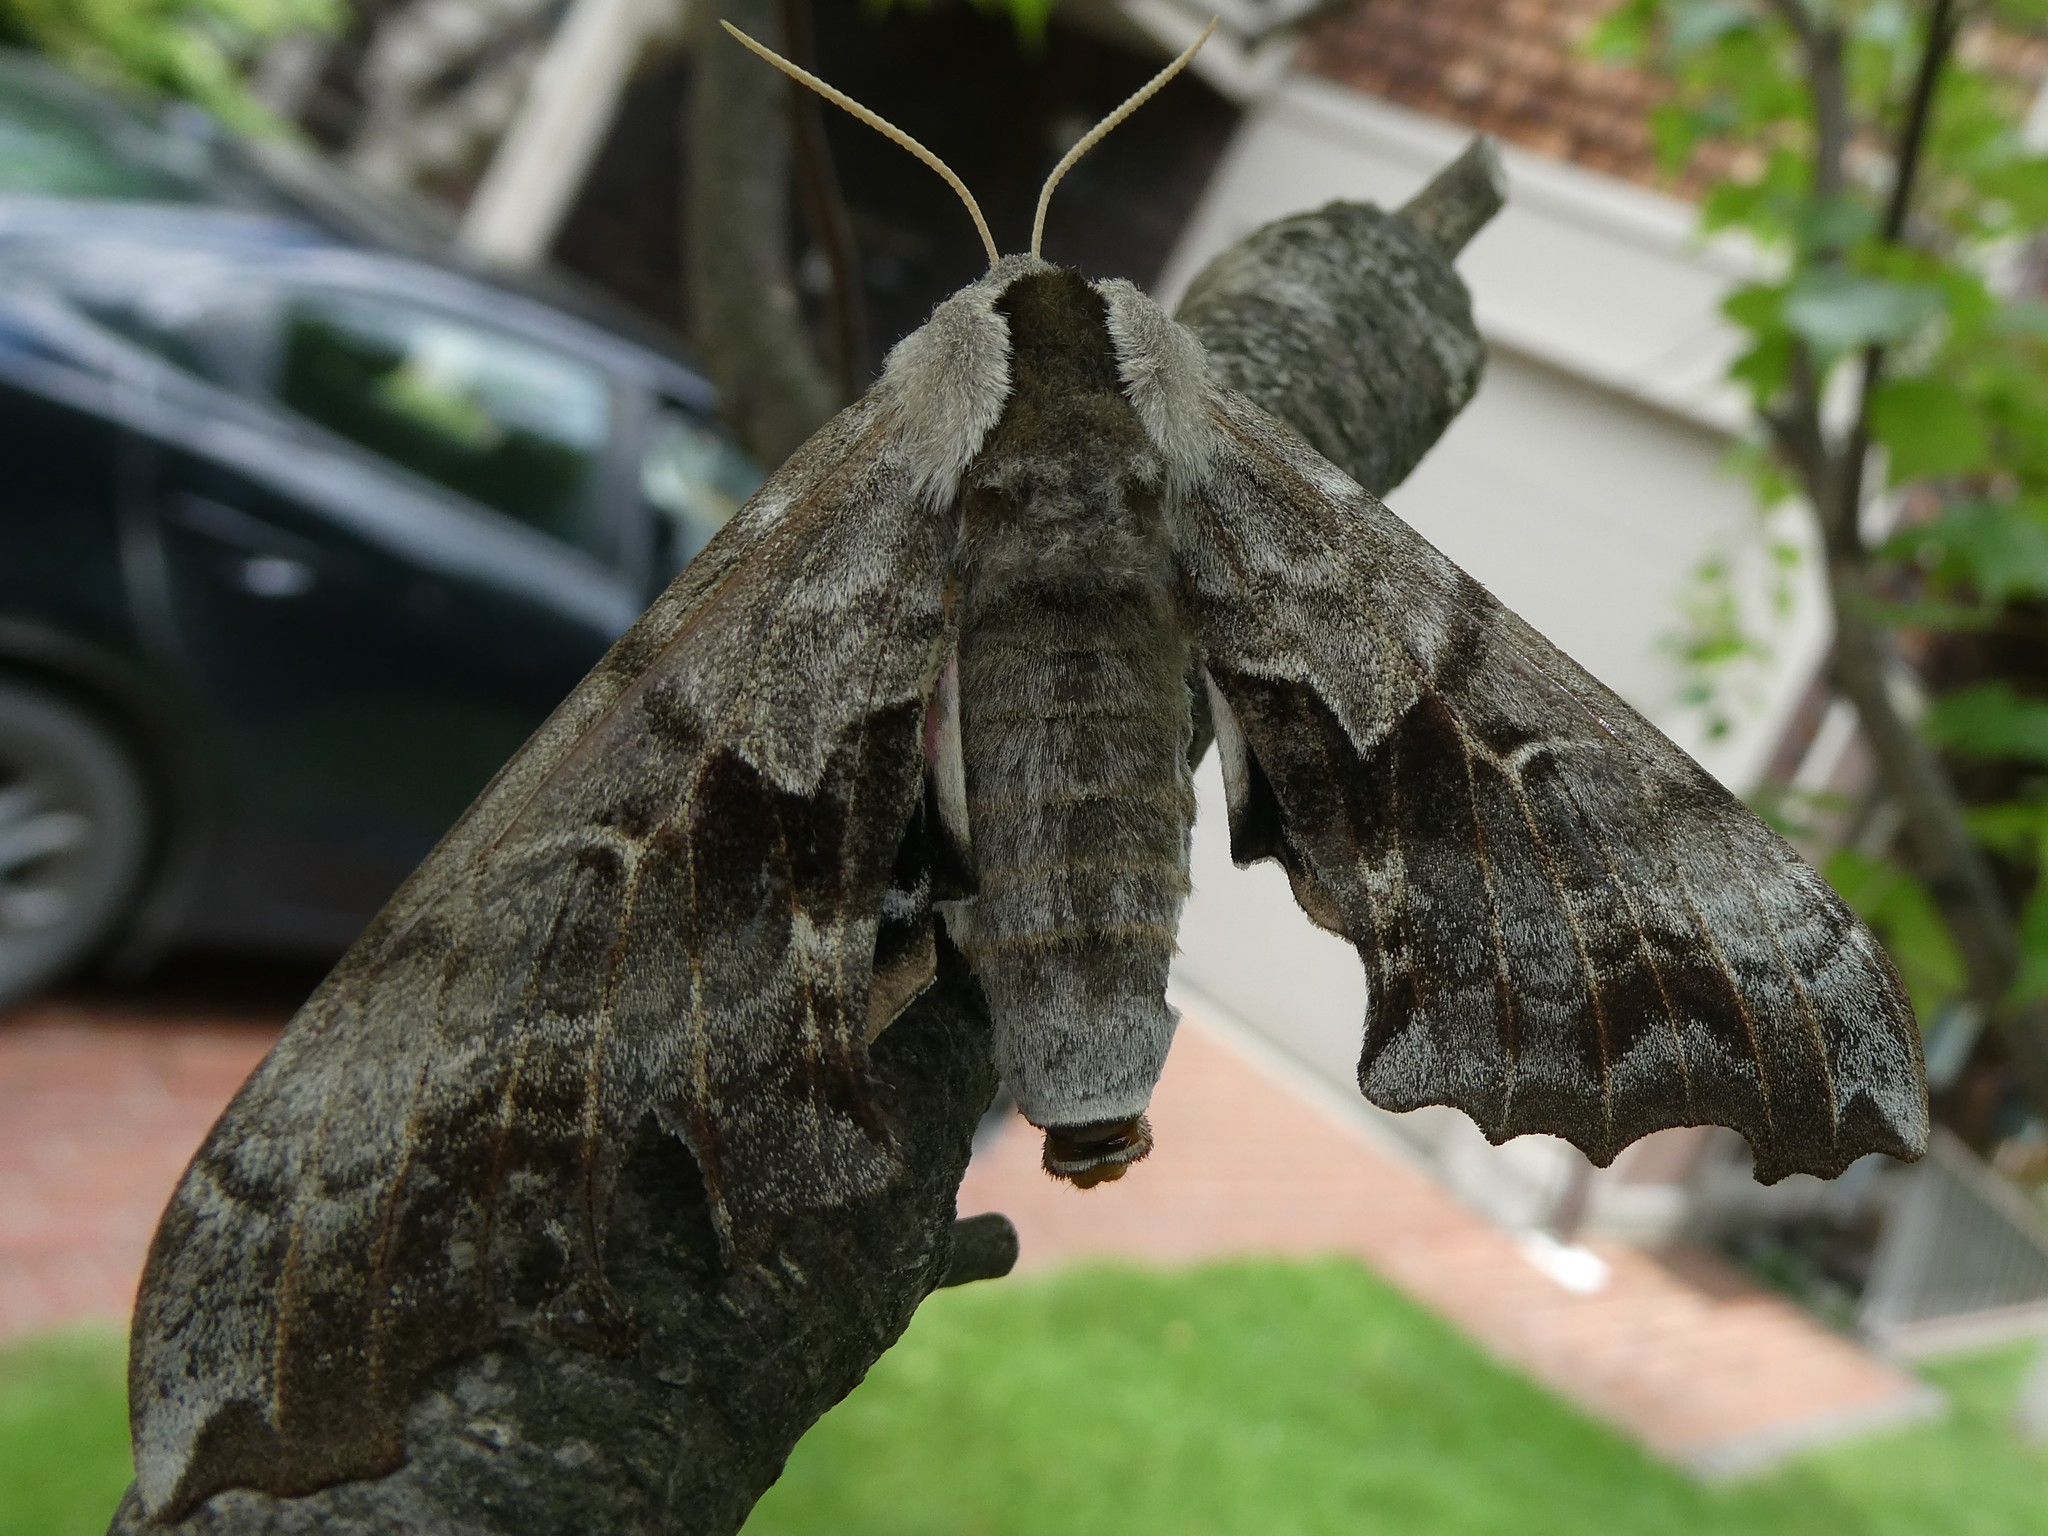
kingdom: Animalia
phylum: Arthropoda
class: Insecta
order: Lepidoptera
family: Sphingidae
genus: Smerinthus
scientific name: Smerinthus cerisyi
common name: Cerisy's sphinx moth
